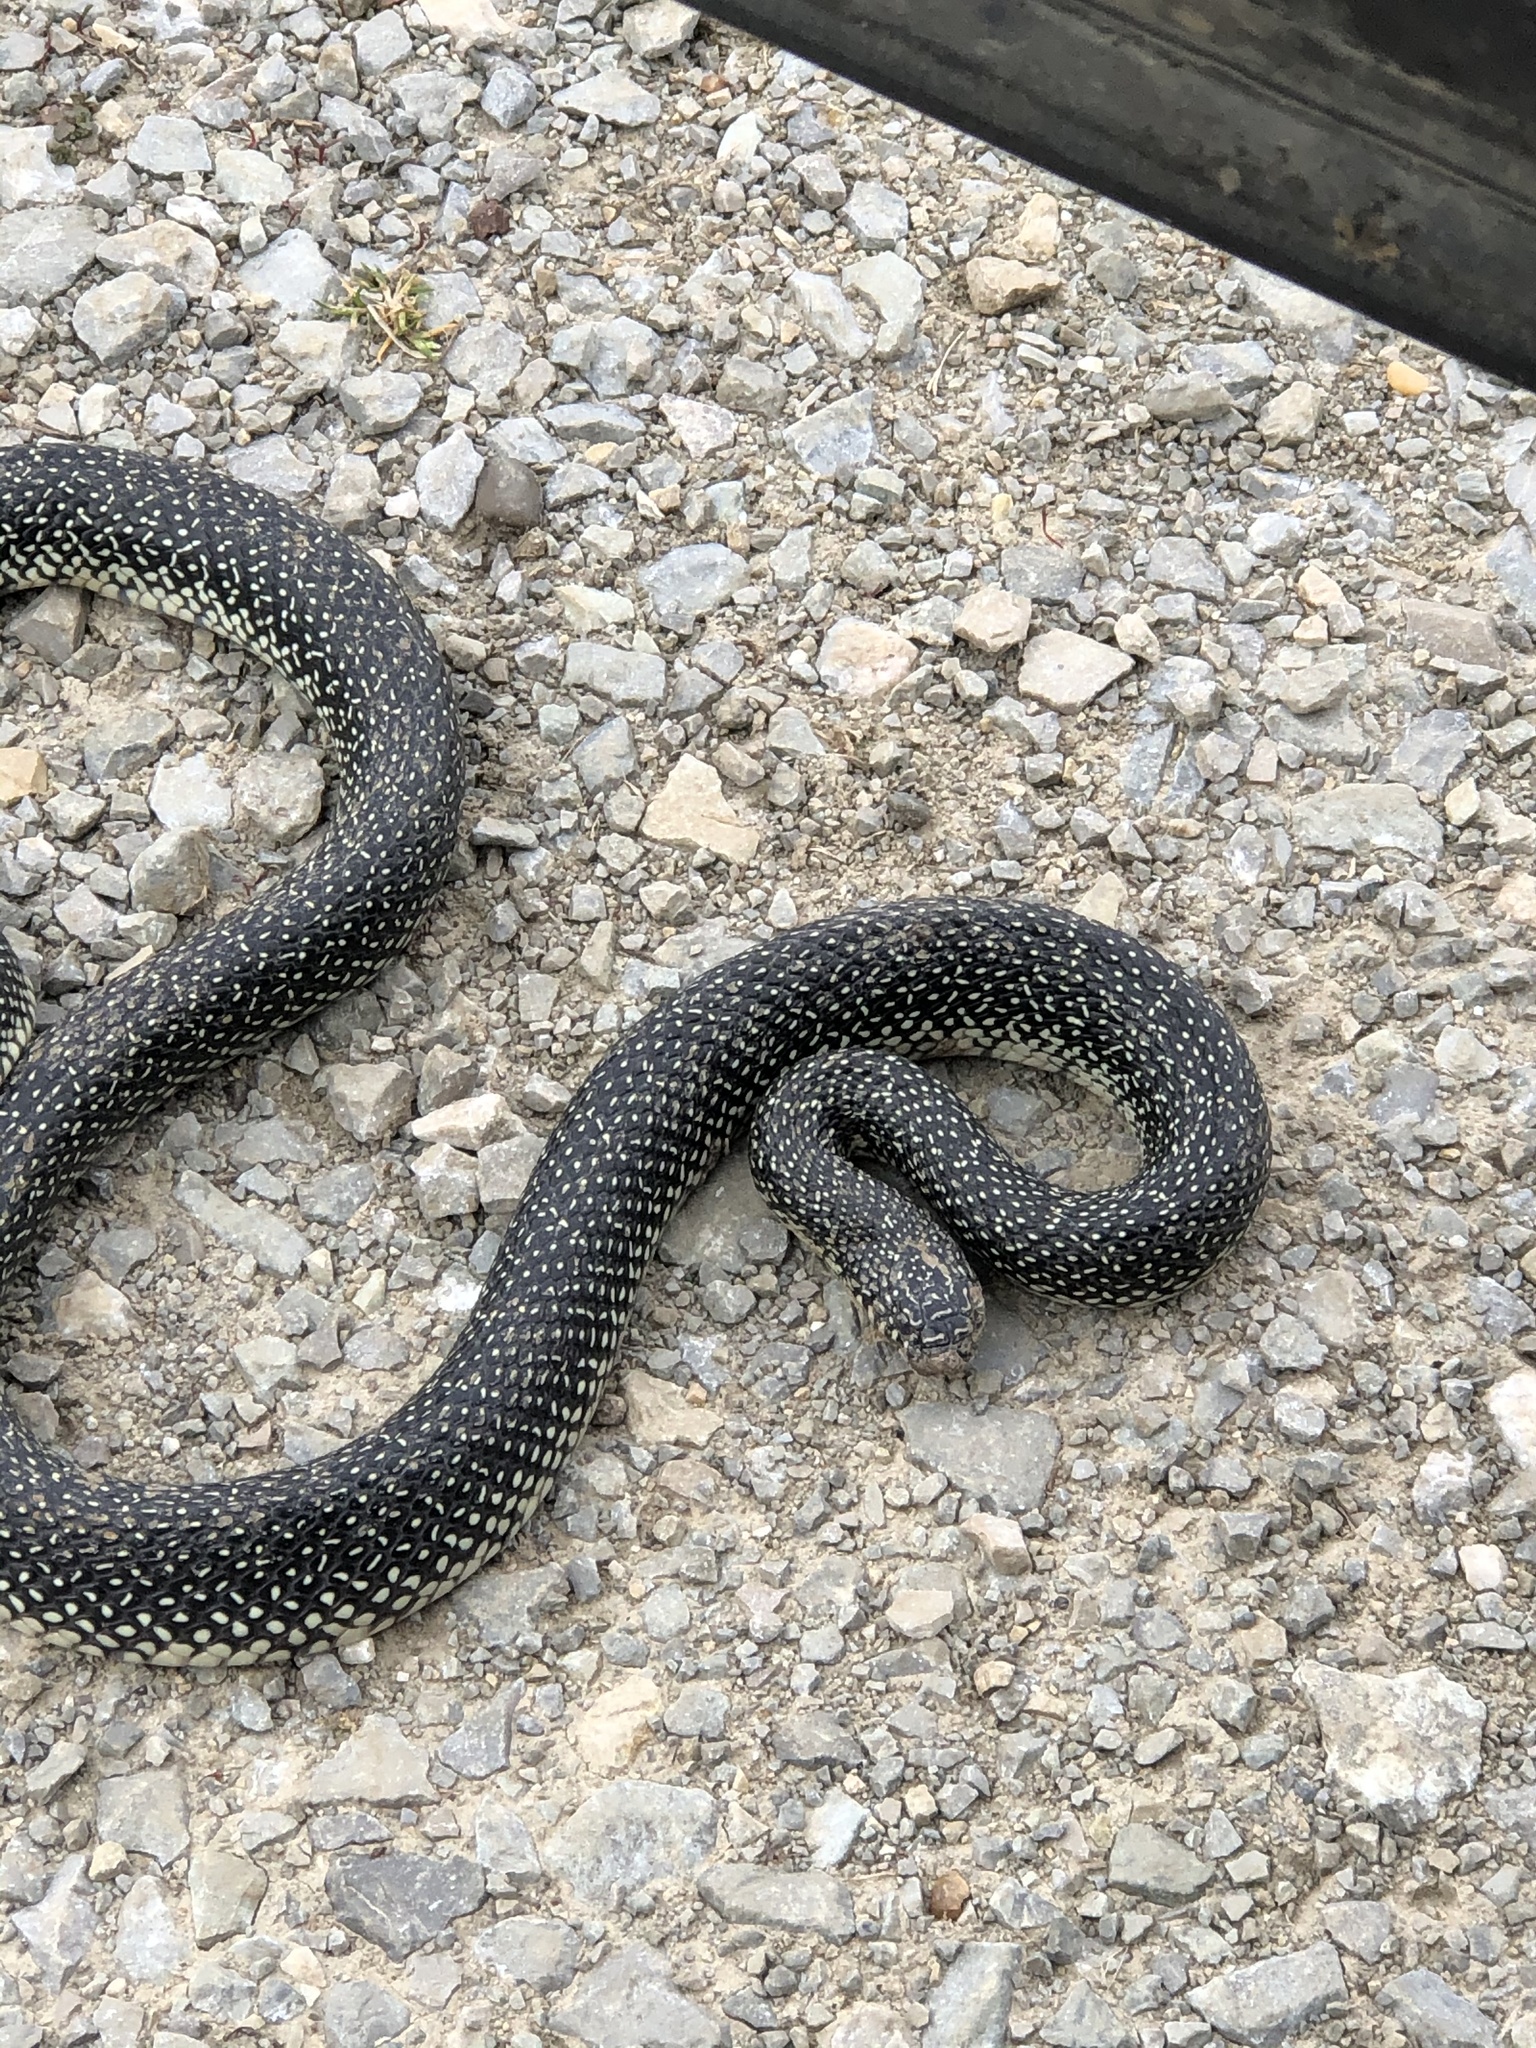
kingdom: Animalia
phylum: Chordata
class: Squamata
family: Colubridae
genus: Lampropeltis
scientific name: Lampropeltis holbrooki
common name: Speckled kingsnake
